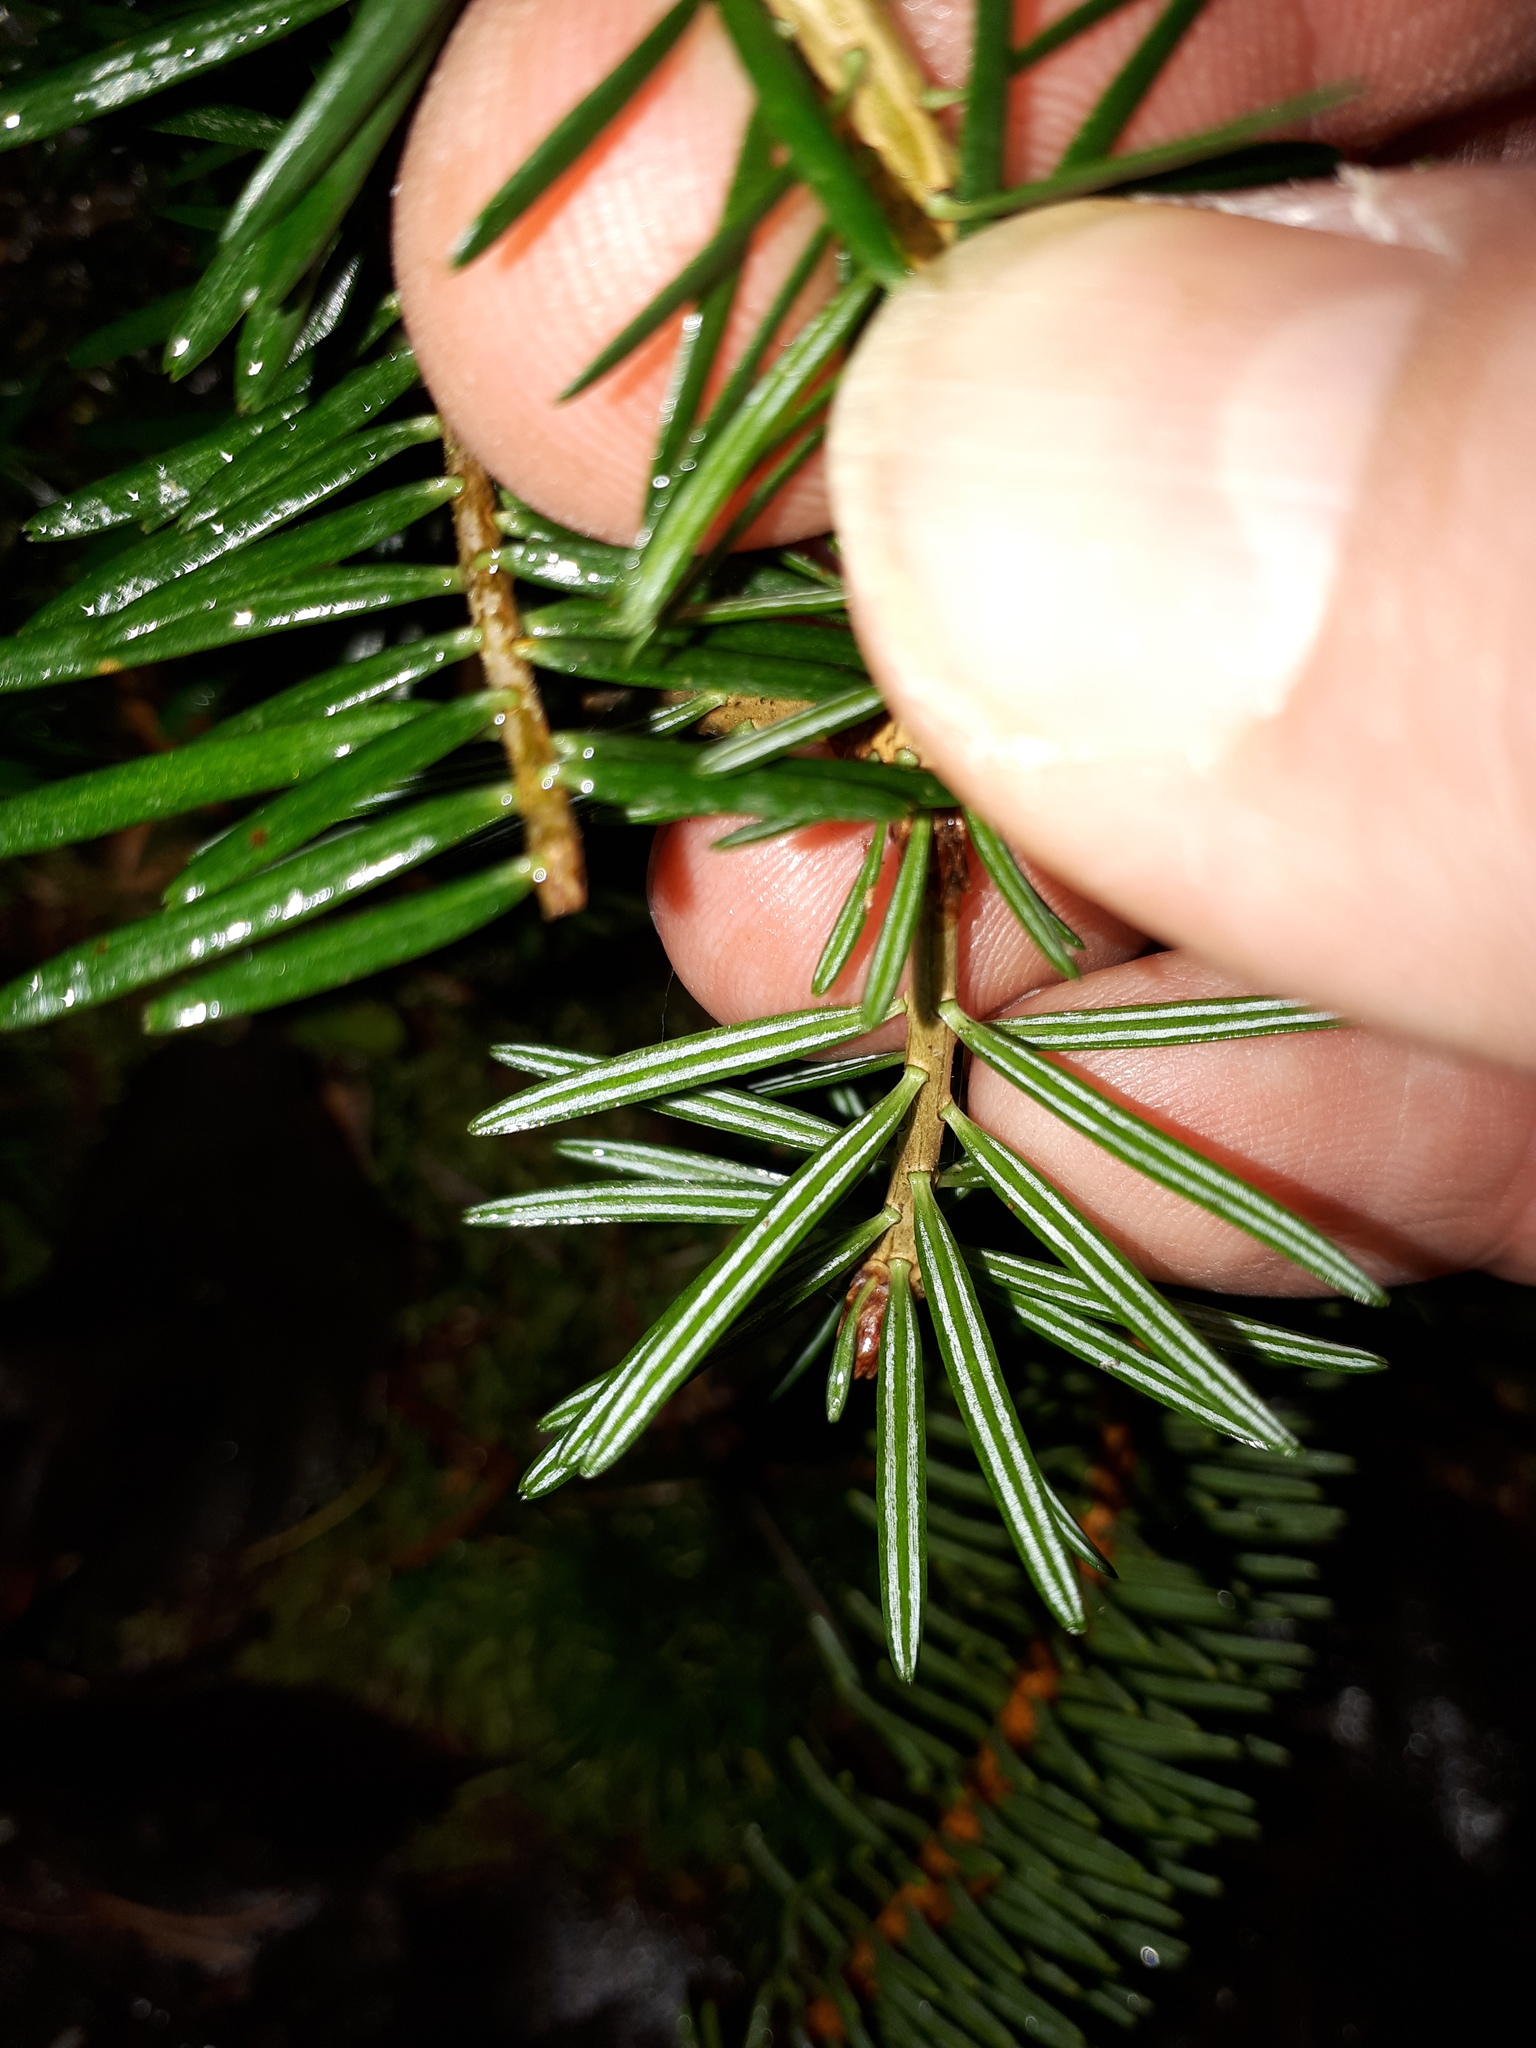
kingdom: Plantae
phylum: Tracheophyta
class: Pinopsida
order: Pinales
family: Pinaceae
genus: Abies
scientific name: Abies alba
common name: Silver fir
